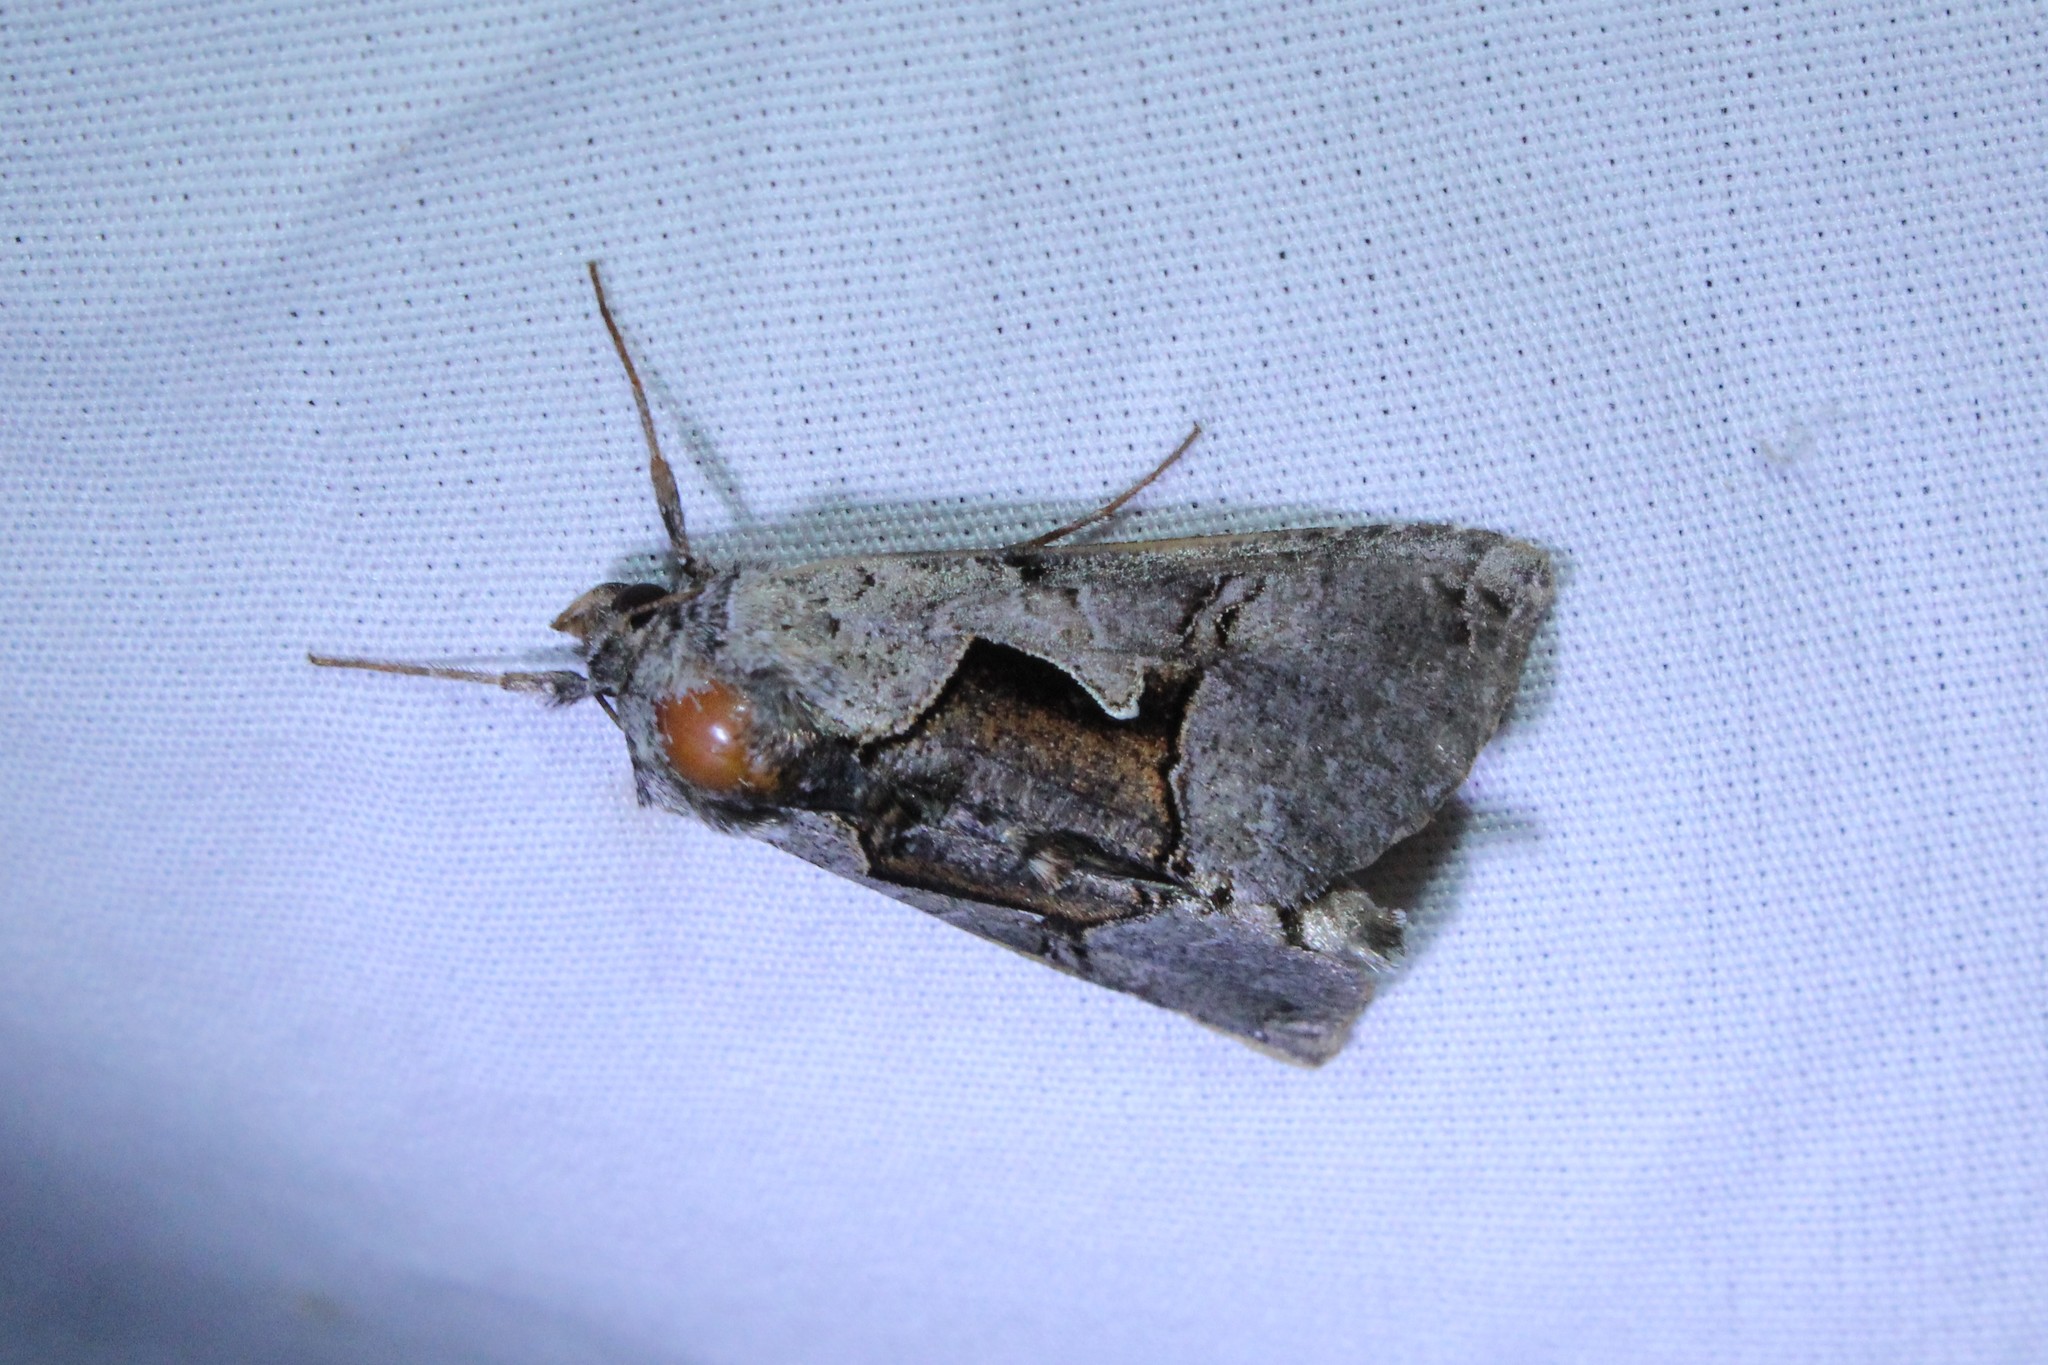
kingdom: Animalia
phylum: Arthropoda
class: Insecta
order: Lepidoptera
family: Noctuidae
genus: Autographa
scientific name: Autographa ampla
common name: Large looper moth
